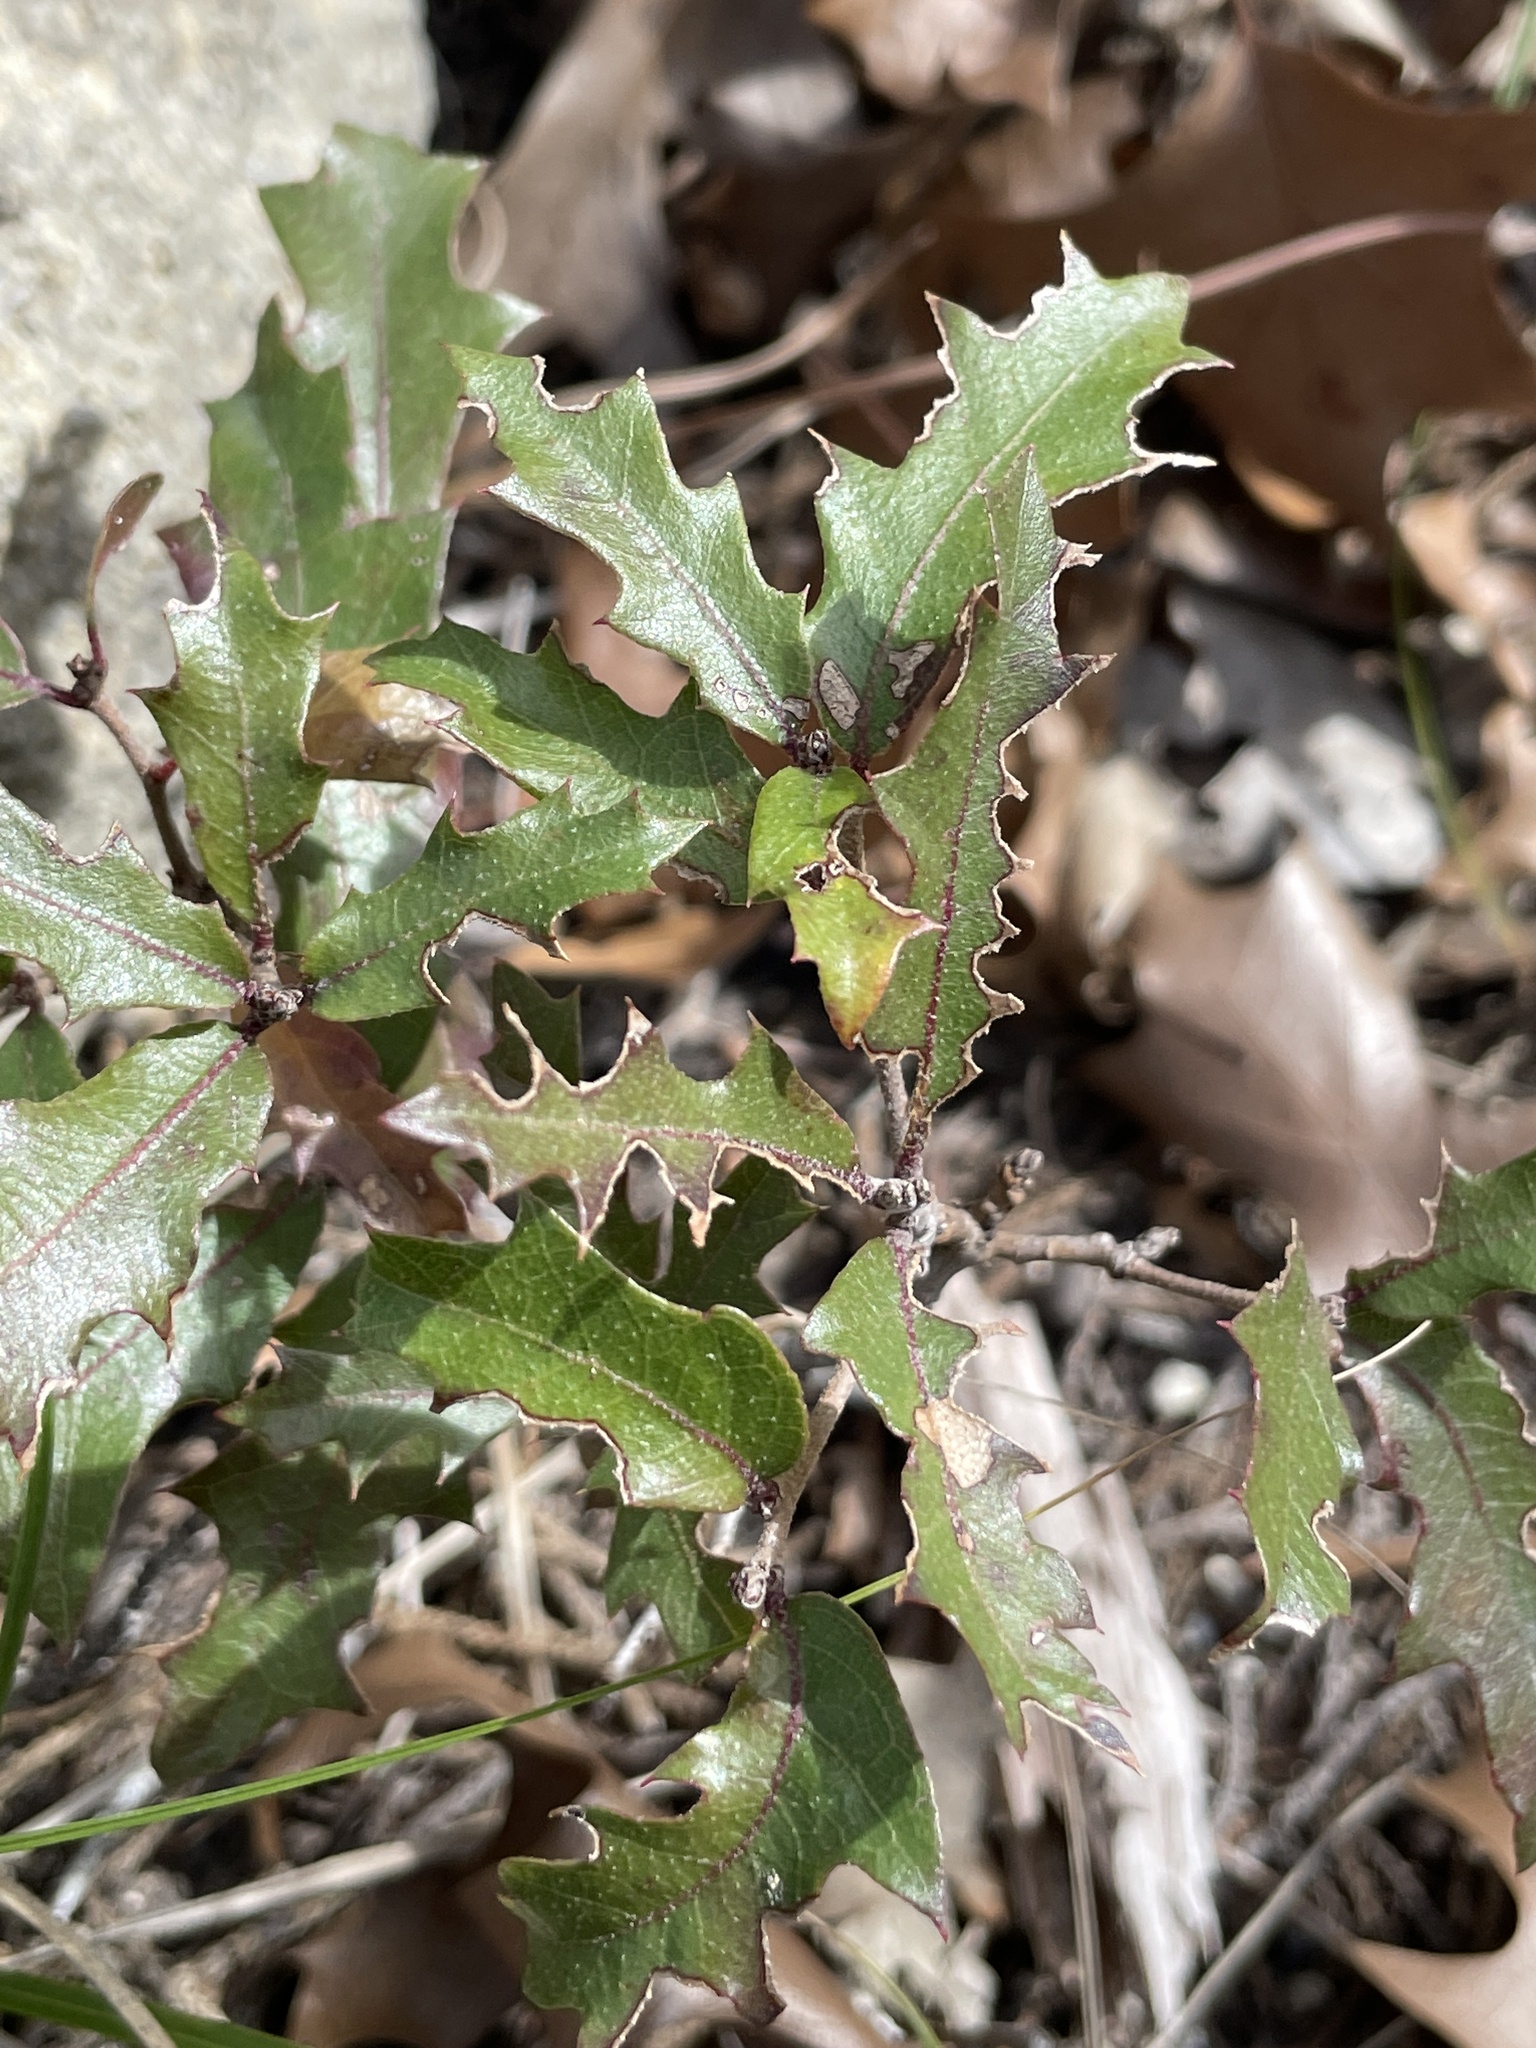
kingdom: Plantae
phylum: Tracheophyta
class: Magnoliopsida
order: Fagales
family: Fagaceae
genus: Quercus
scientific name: Quercus vaseyana
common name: Sandpaper oak
